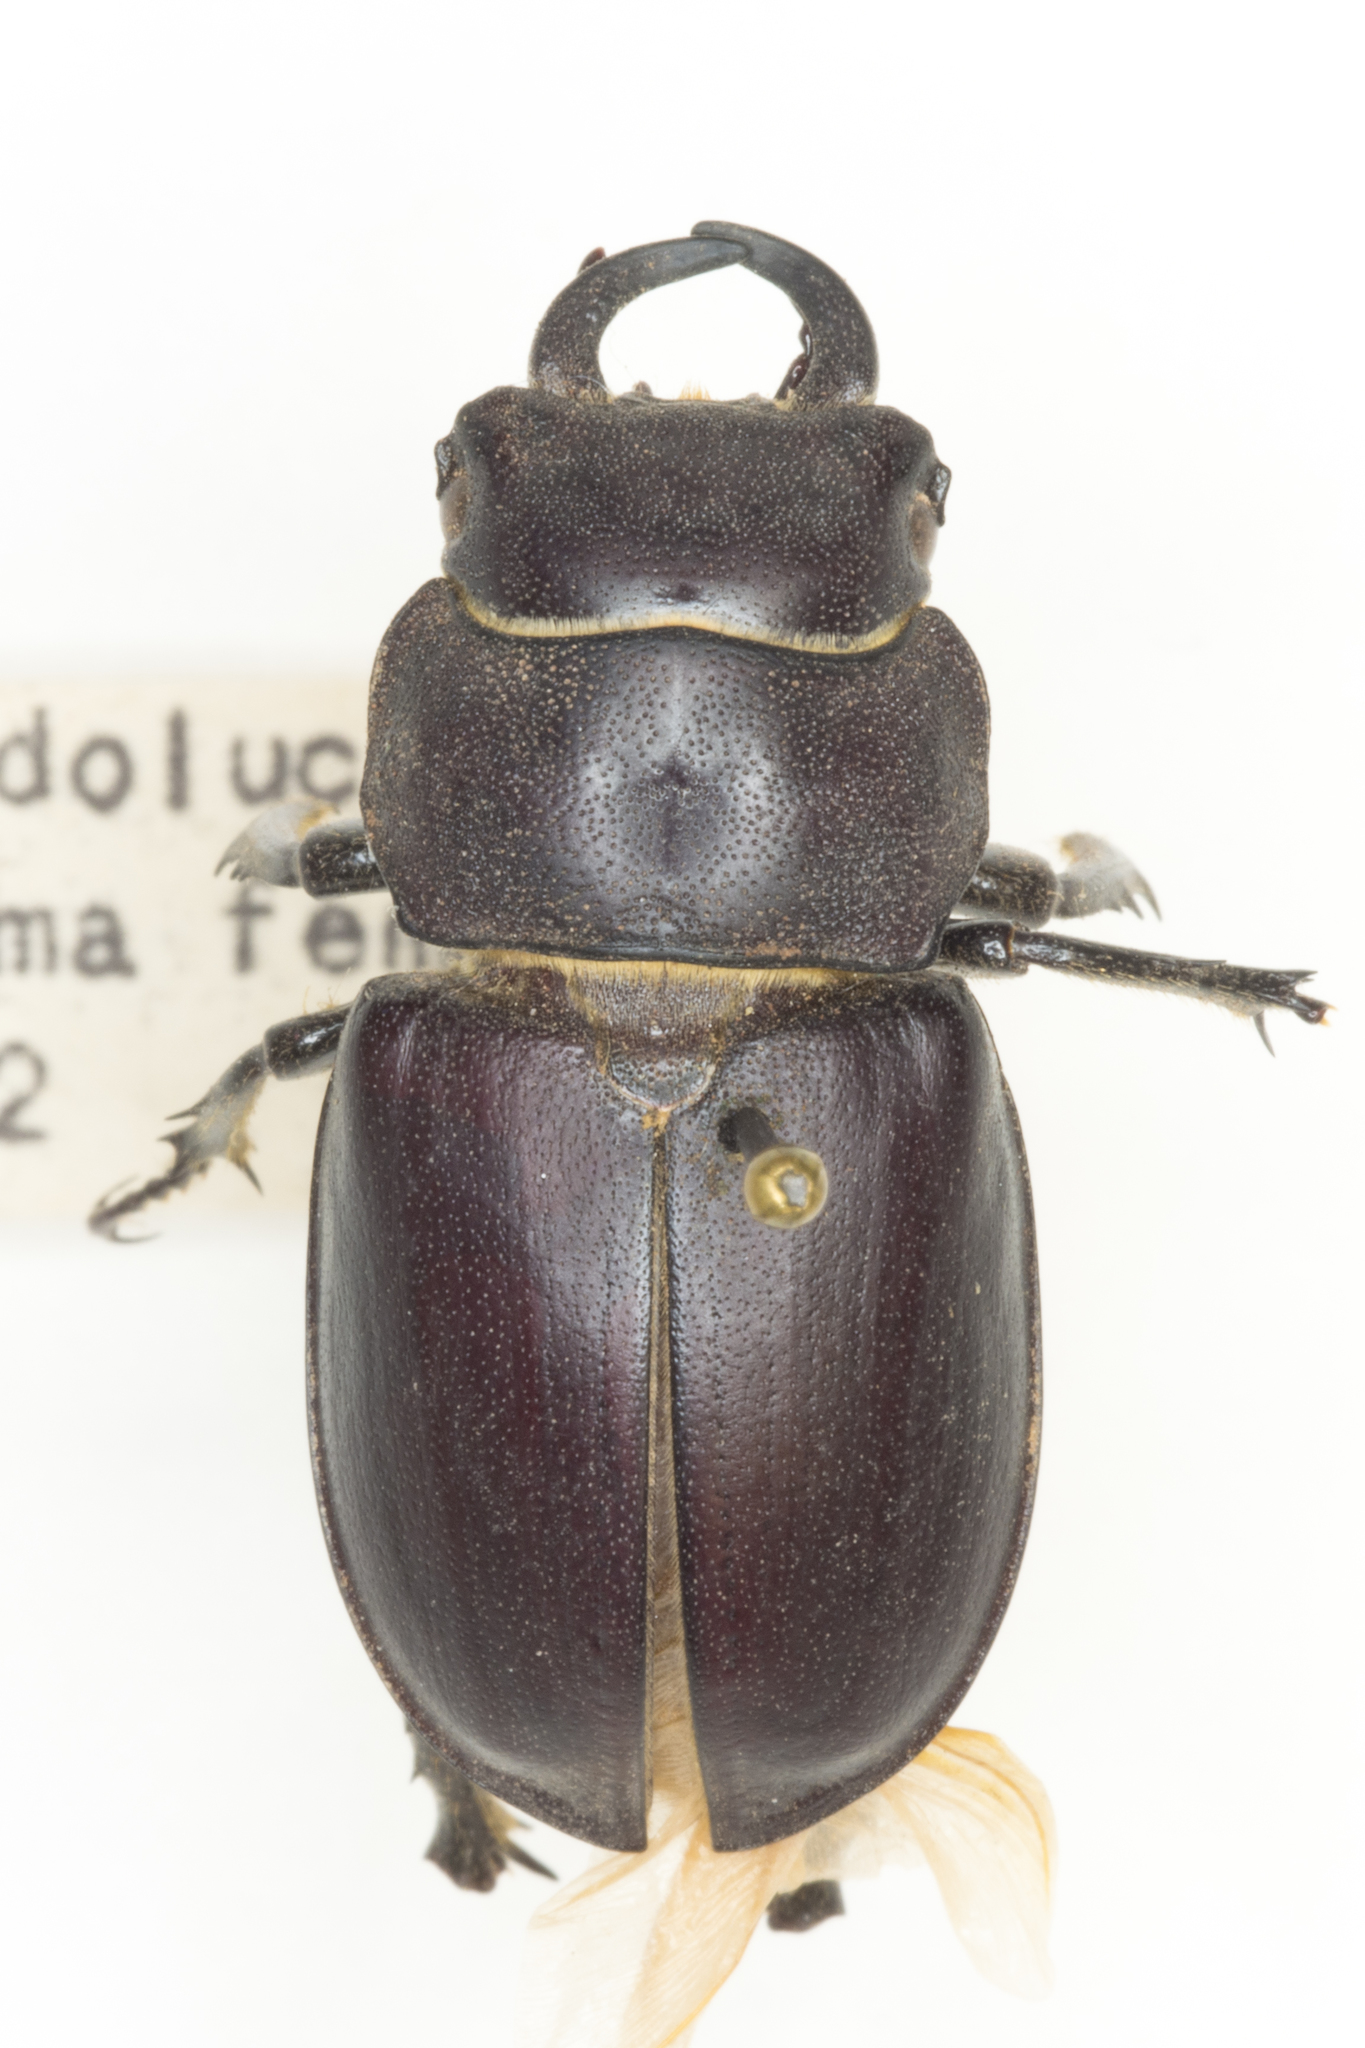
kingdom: Animalia
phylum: Arthropoda
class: Insecta
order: Coleoptera
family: Lucanidae
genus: Lucanus
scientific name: Lucanus mazama
